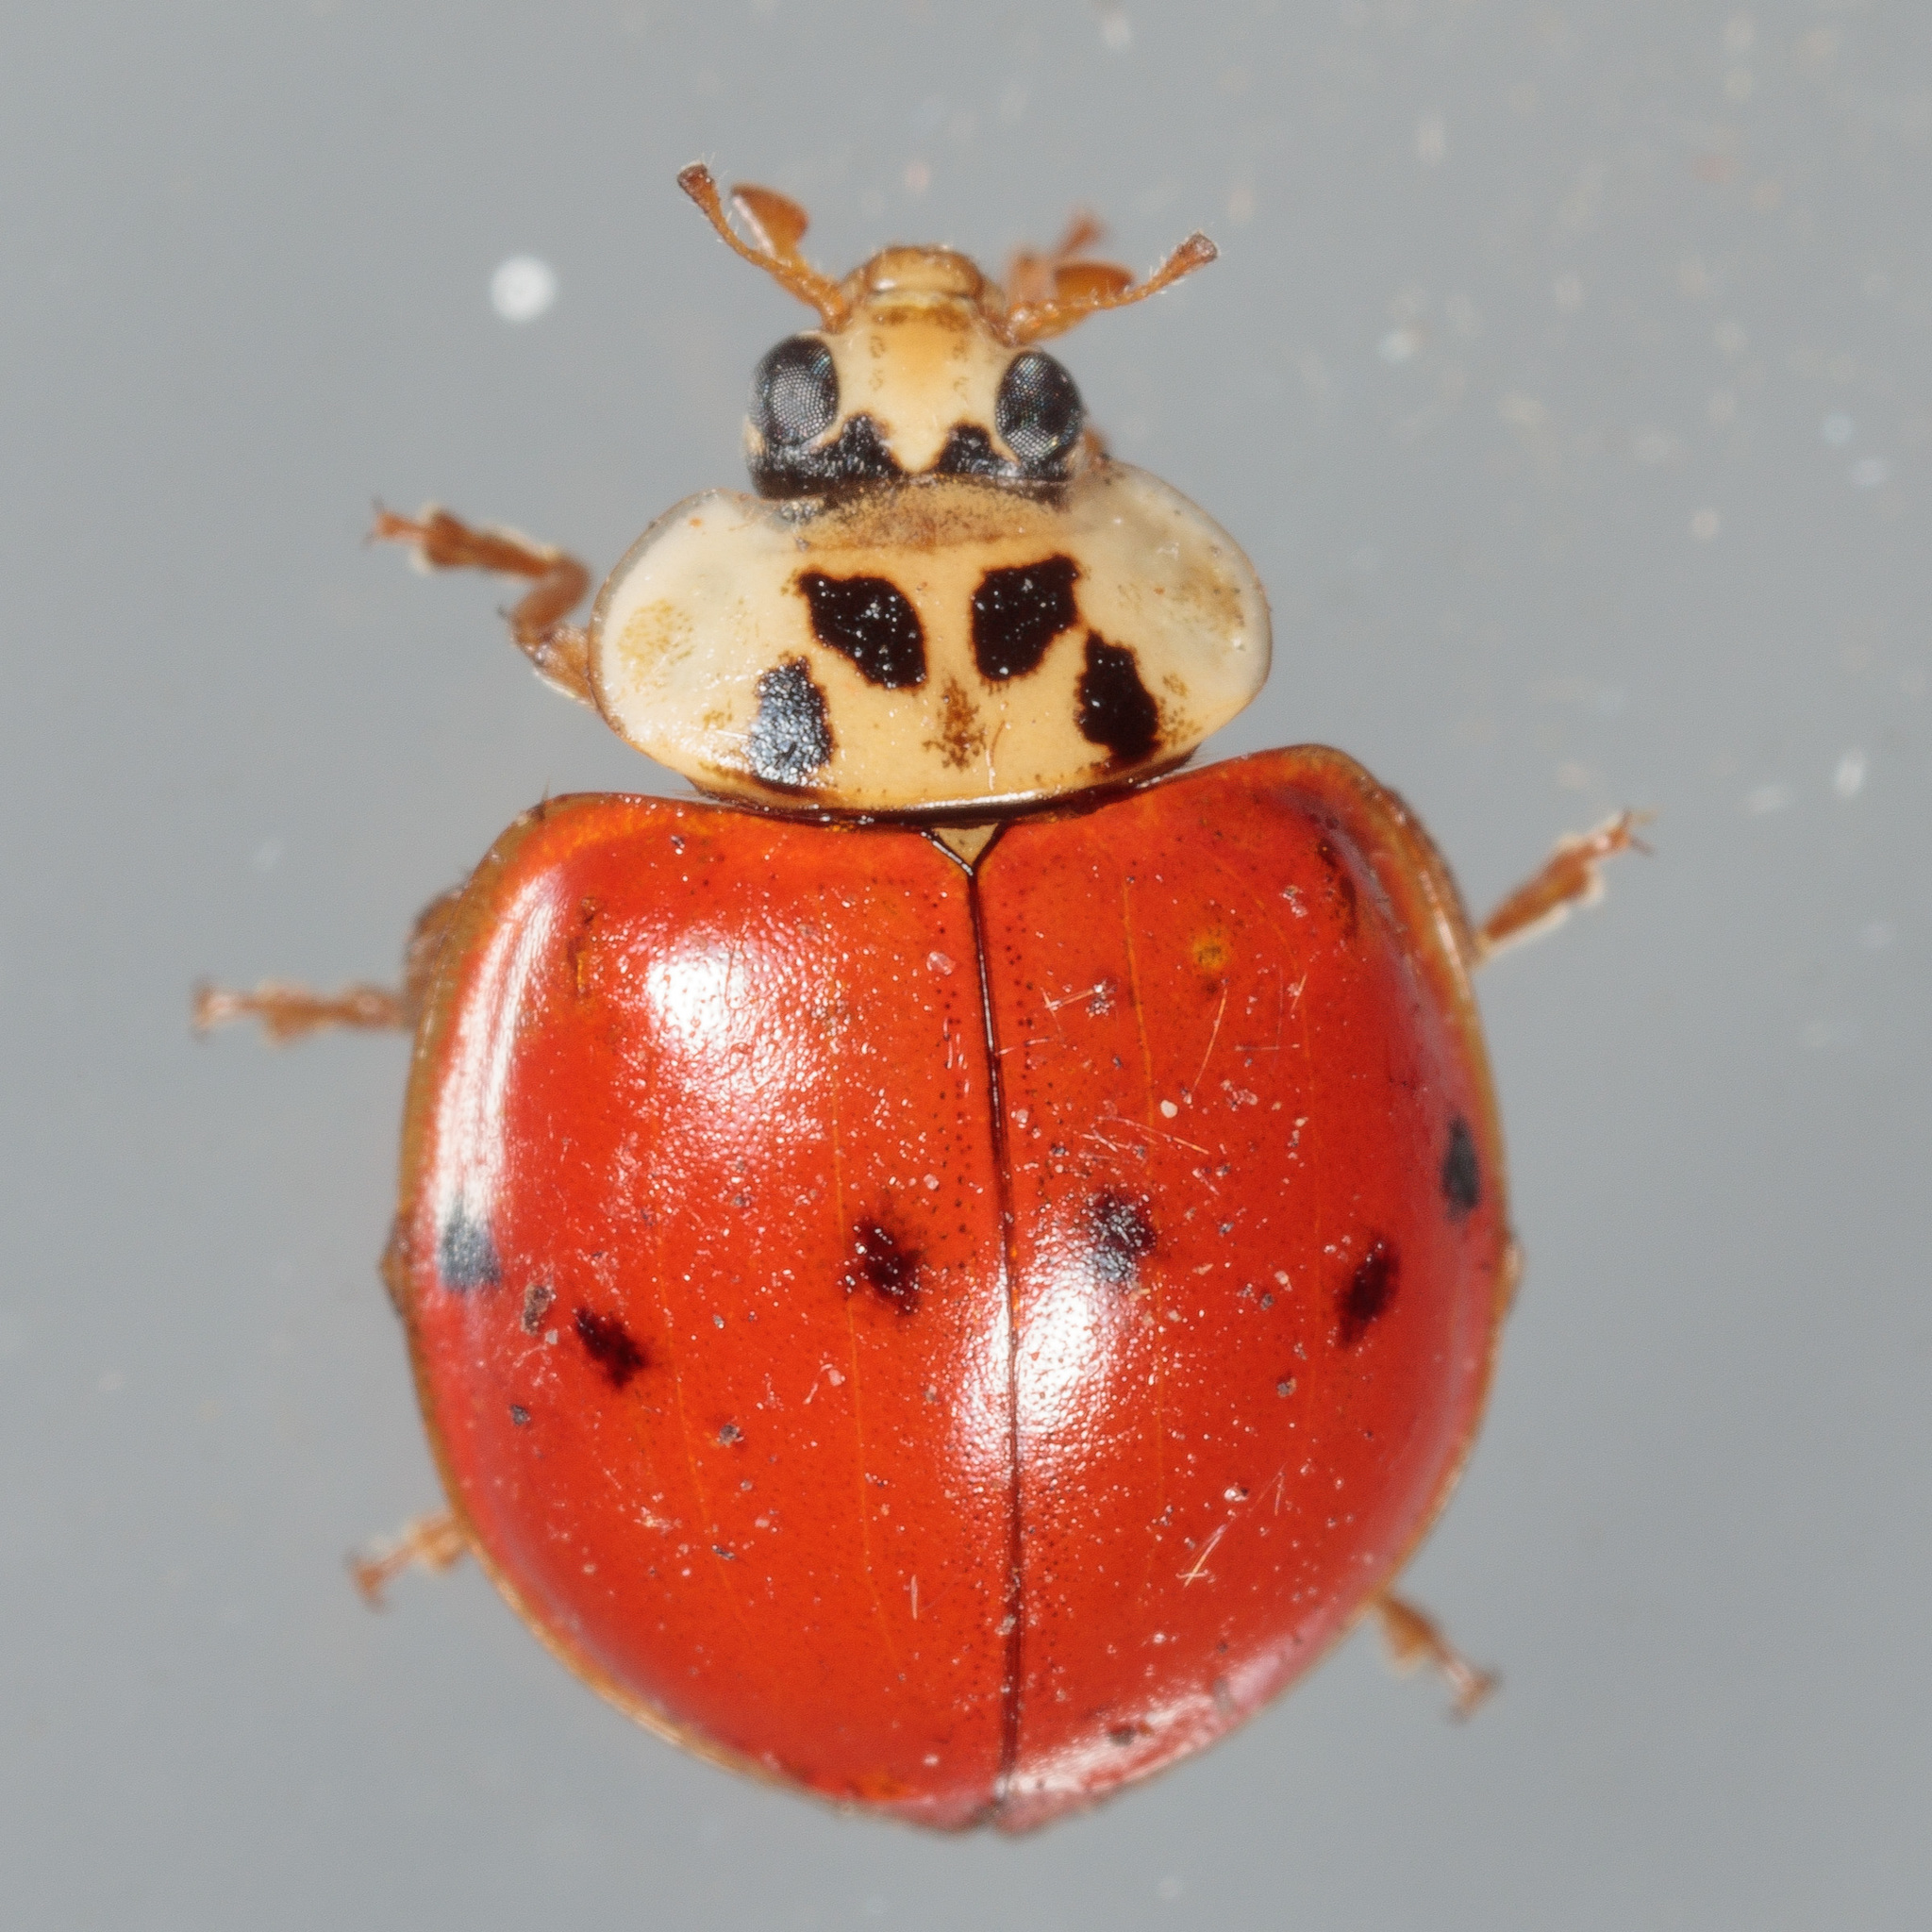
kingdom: Animalia
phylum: Arthropoda
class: Insecta
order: Coleoptera
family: Coccinellidae
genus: Harmonia
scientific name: Harmonia axyridis
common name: Harlequin ladybird
